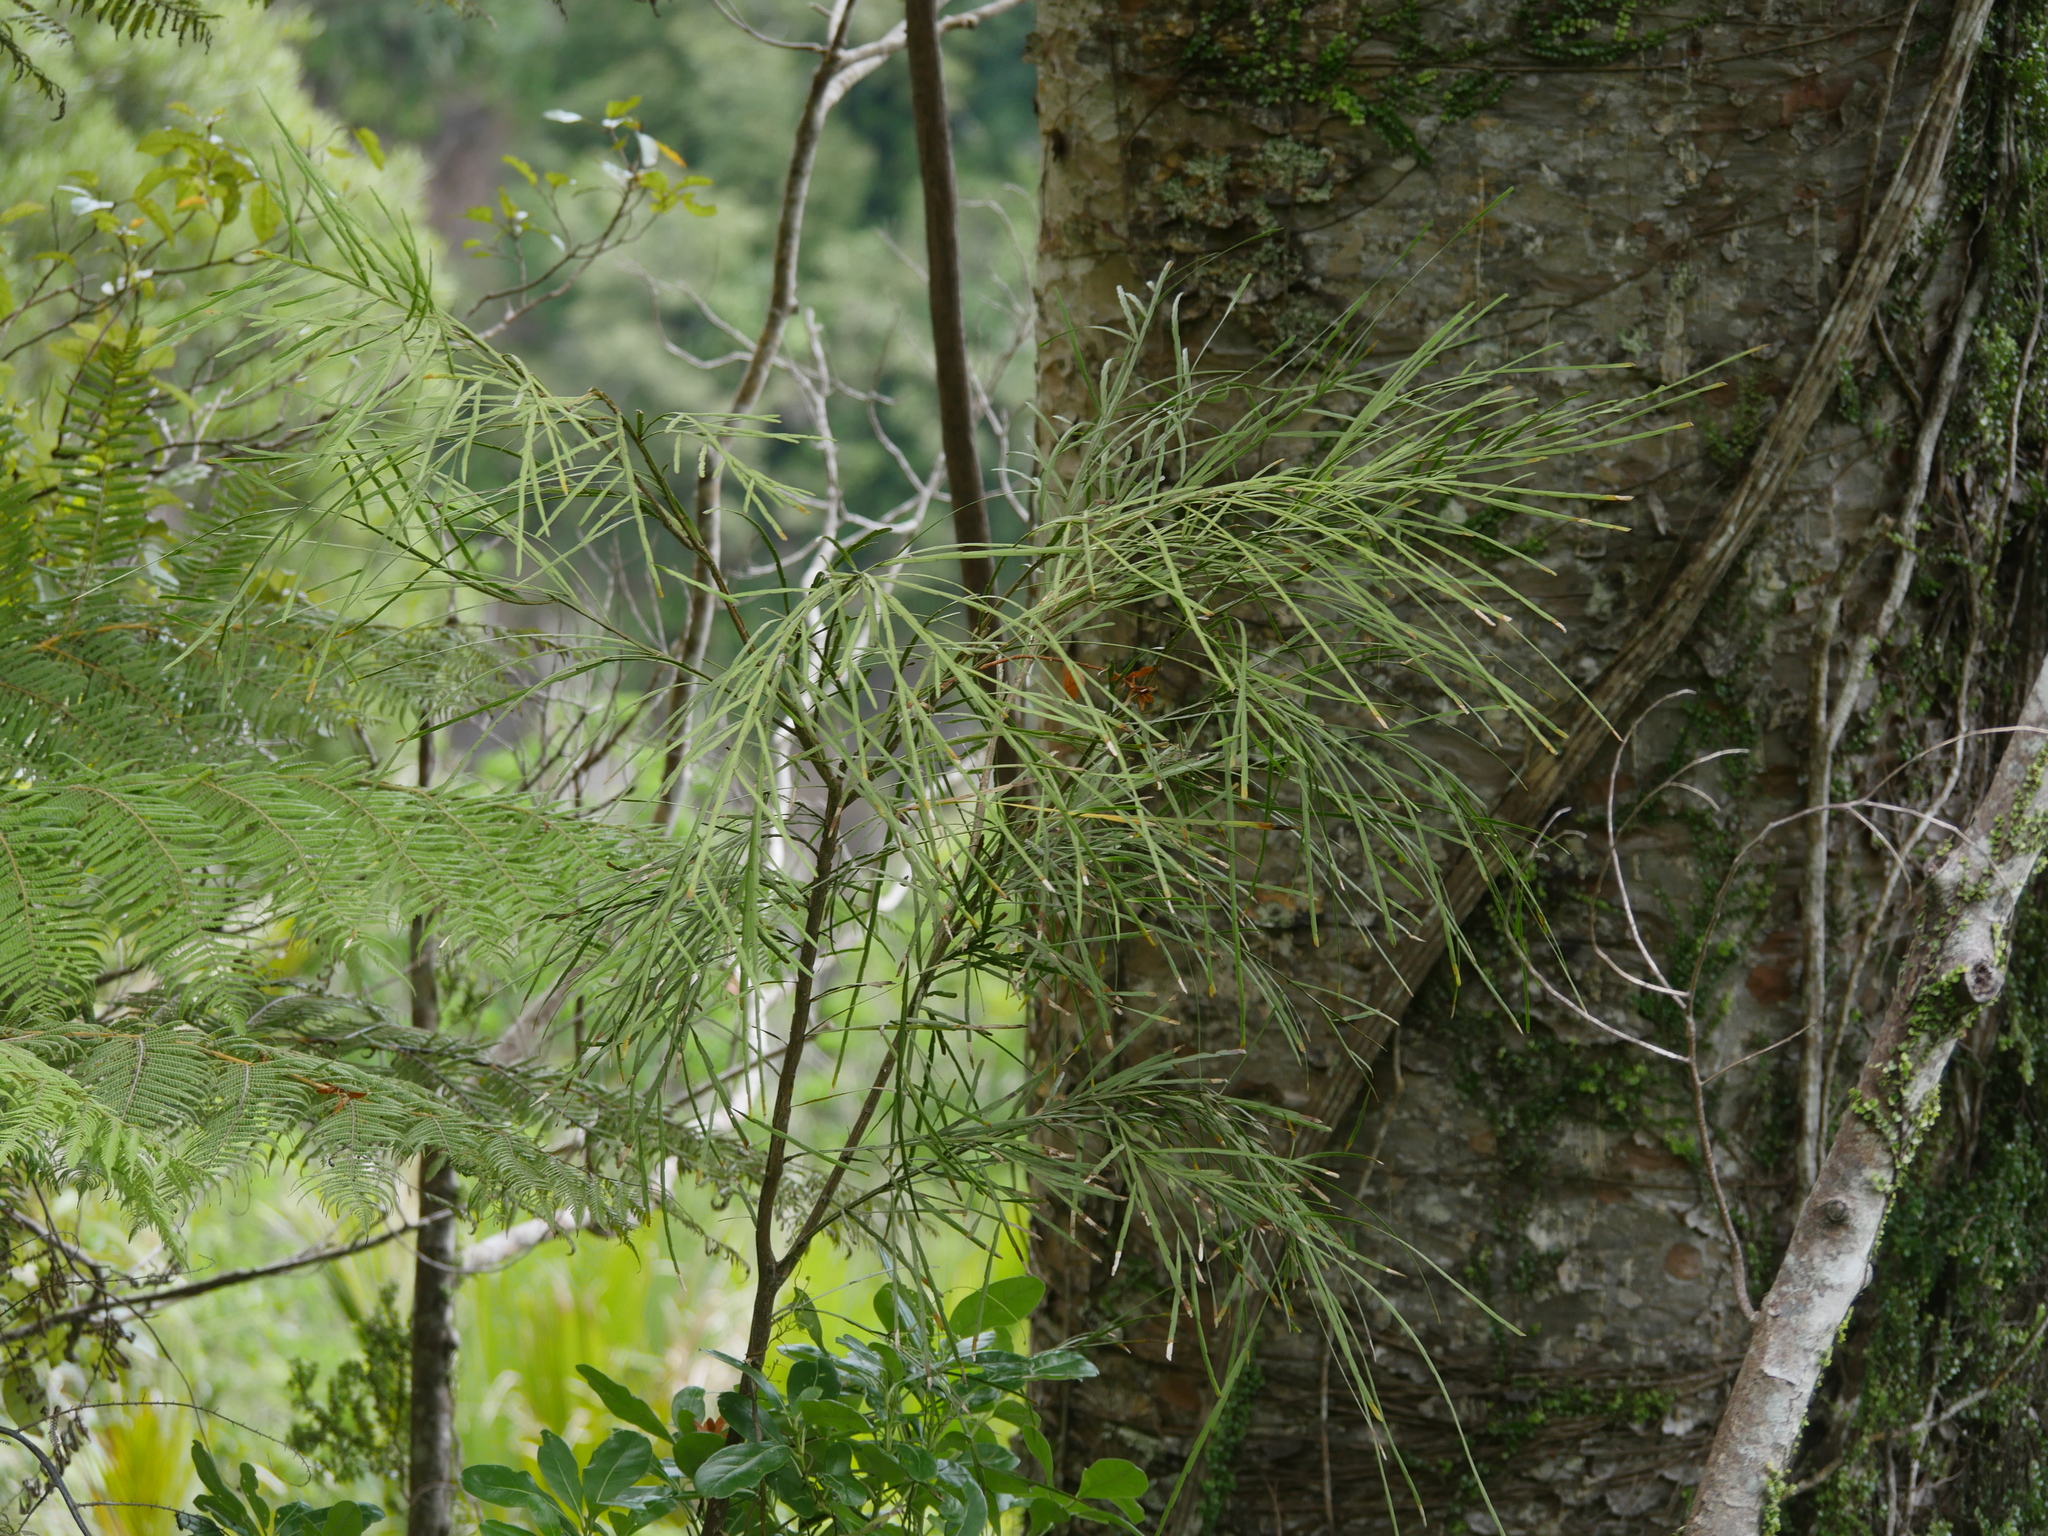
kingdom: Plantae
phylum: Tracheophyta
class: Magnoliopsida
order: Fabales
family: Fabaceae
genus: Carmichaelia
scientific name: Carmichaelia australis
